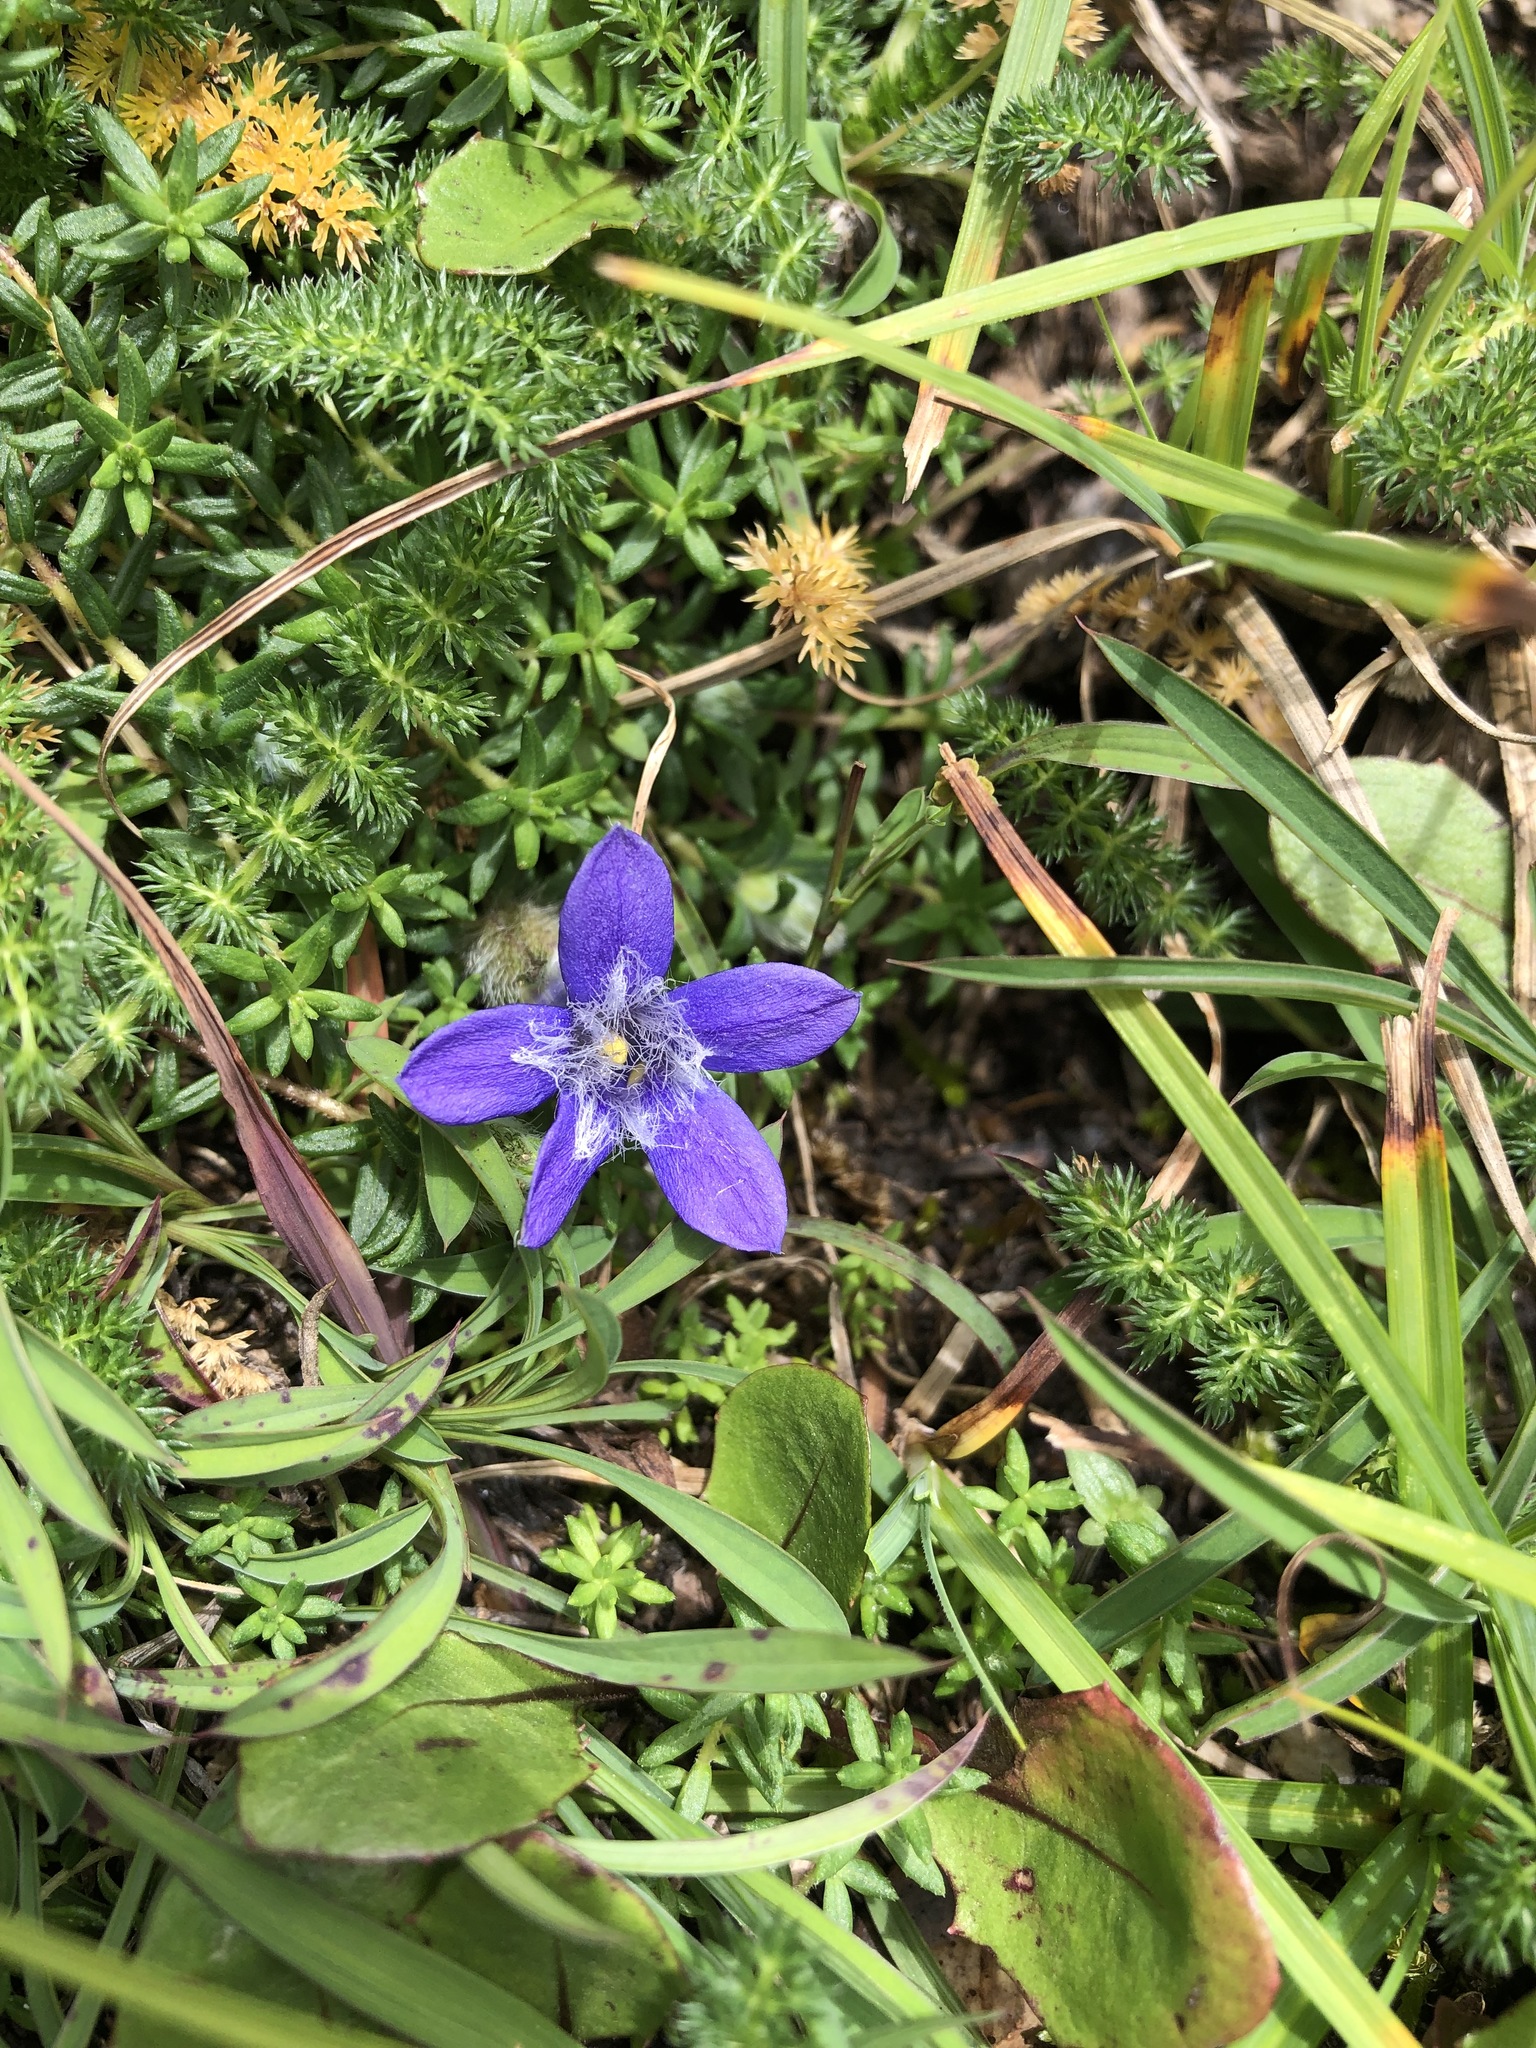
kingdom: Plantae
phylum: Tracheophyta
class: Magnoliopsida
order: Asterales
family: Campanulaceae
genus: Cyananthus
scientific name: Cyananthus microphyllus
